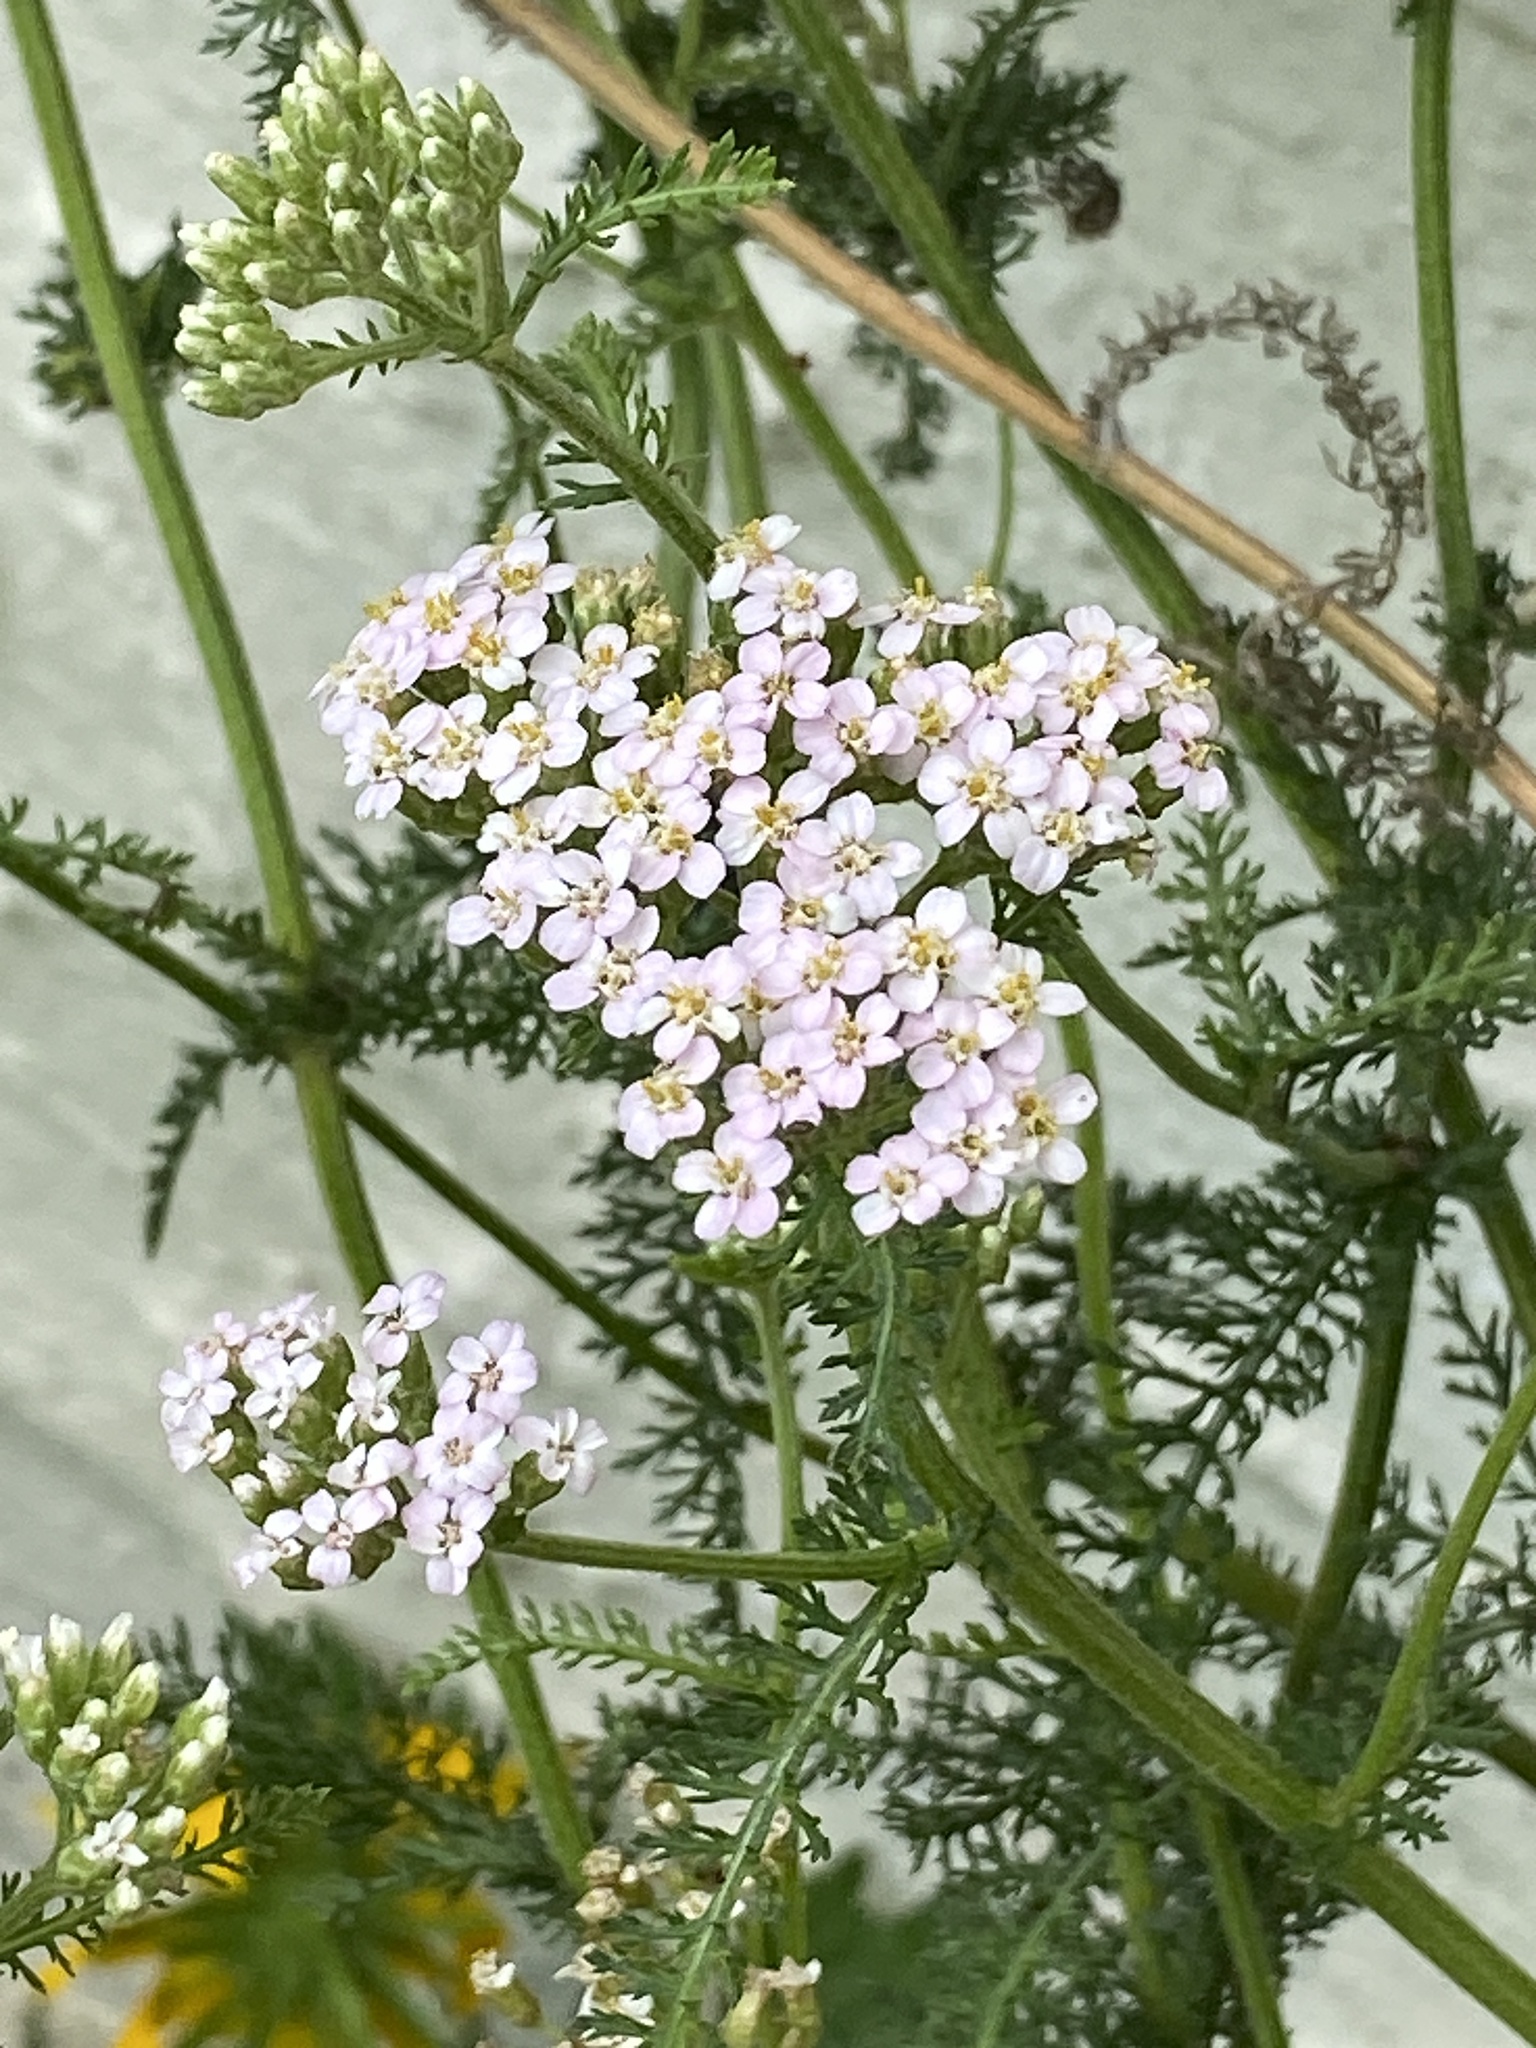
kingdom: Plantae
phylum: Tracheophyta
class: Magnoliopsida
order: Asterales
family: Asteraceae
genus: Achillea
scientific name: Achillea millefolium
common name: Yarrow
